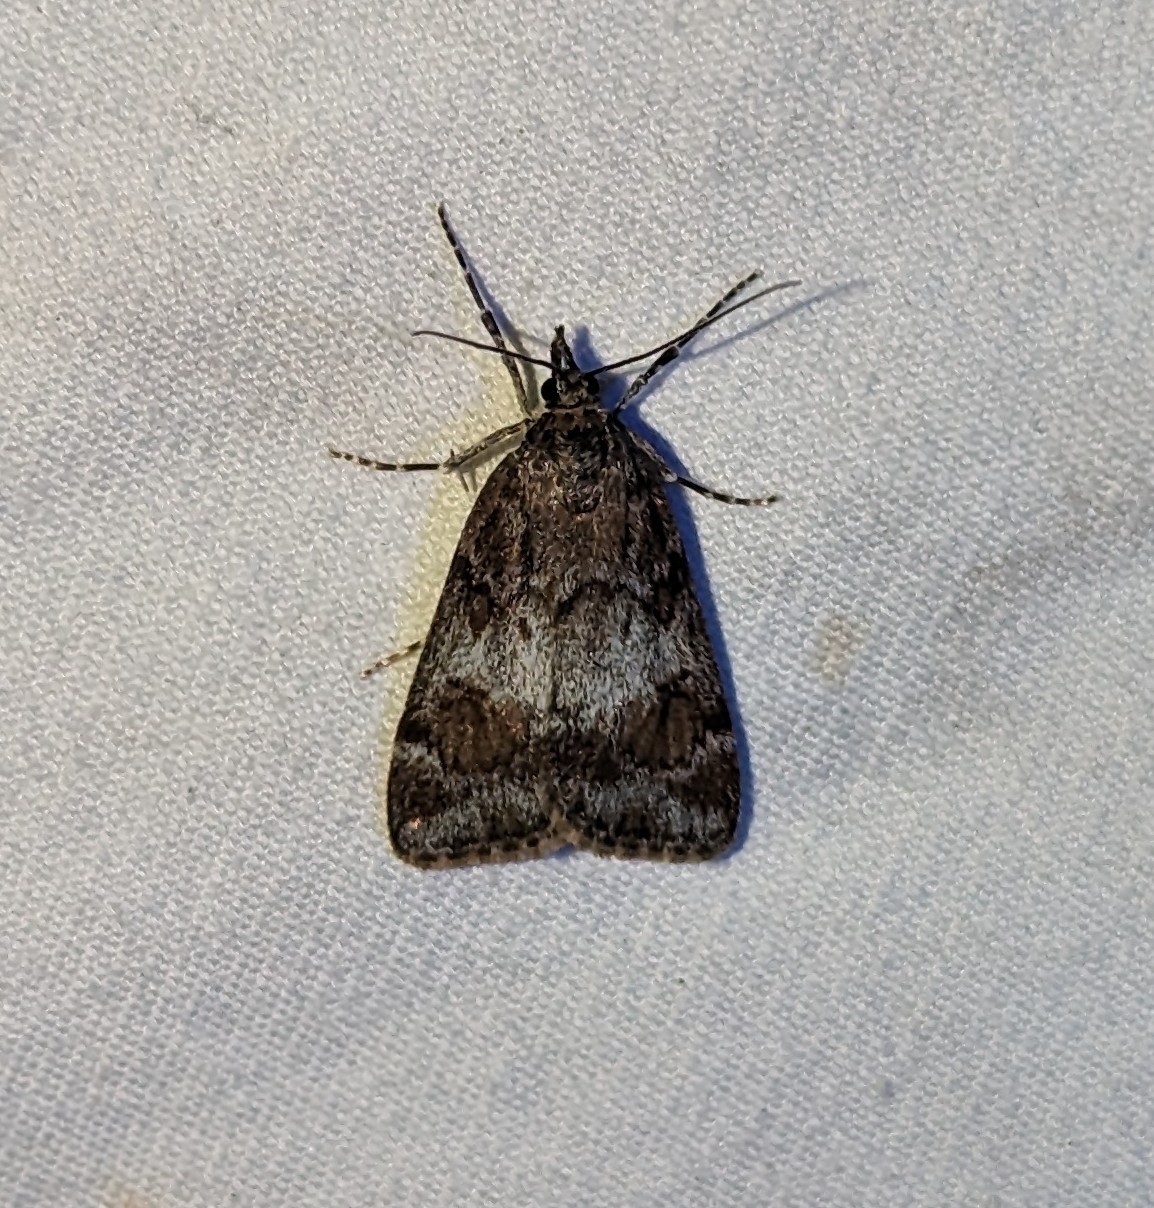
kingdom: Animalia
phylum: Arthropoda
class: Insecta
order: Lepidoptera
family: Crambidae
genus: Gesneria
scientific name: Gesneria centuriella
